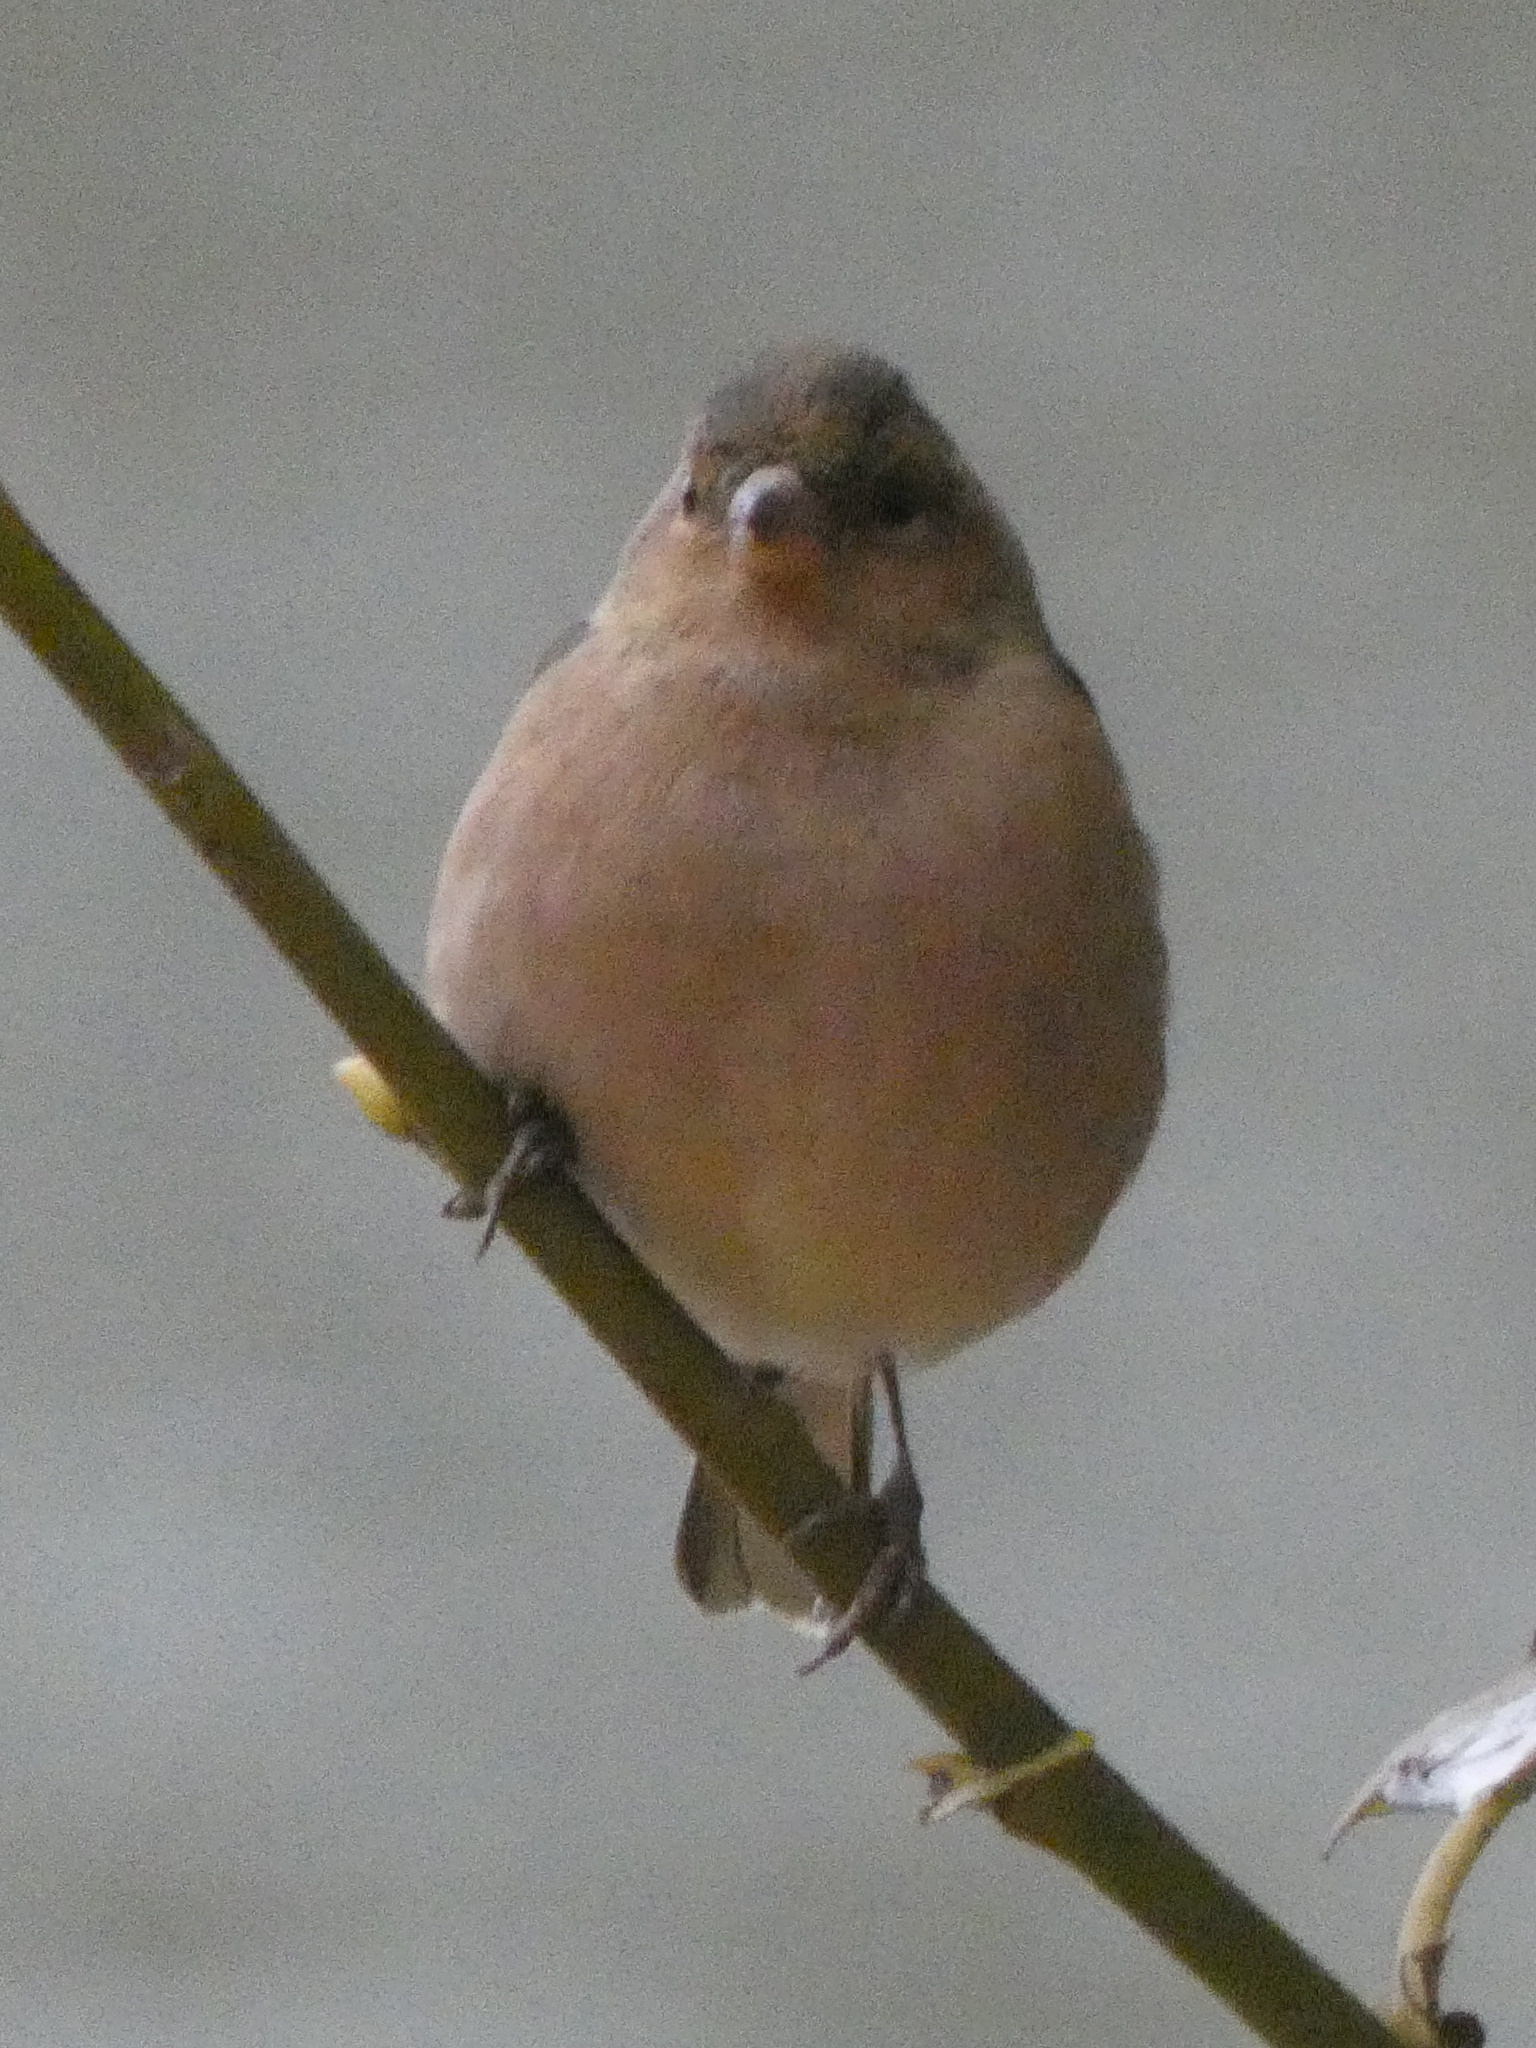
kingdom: Animalia
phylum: Chordata
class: Aves
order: Passeriformes
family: Fringillidae
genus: Fringilla
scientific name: Fringilla coelebs
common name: Common chaffinch
